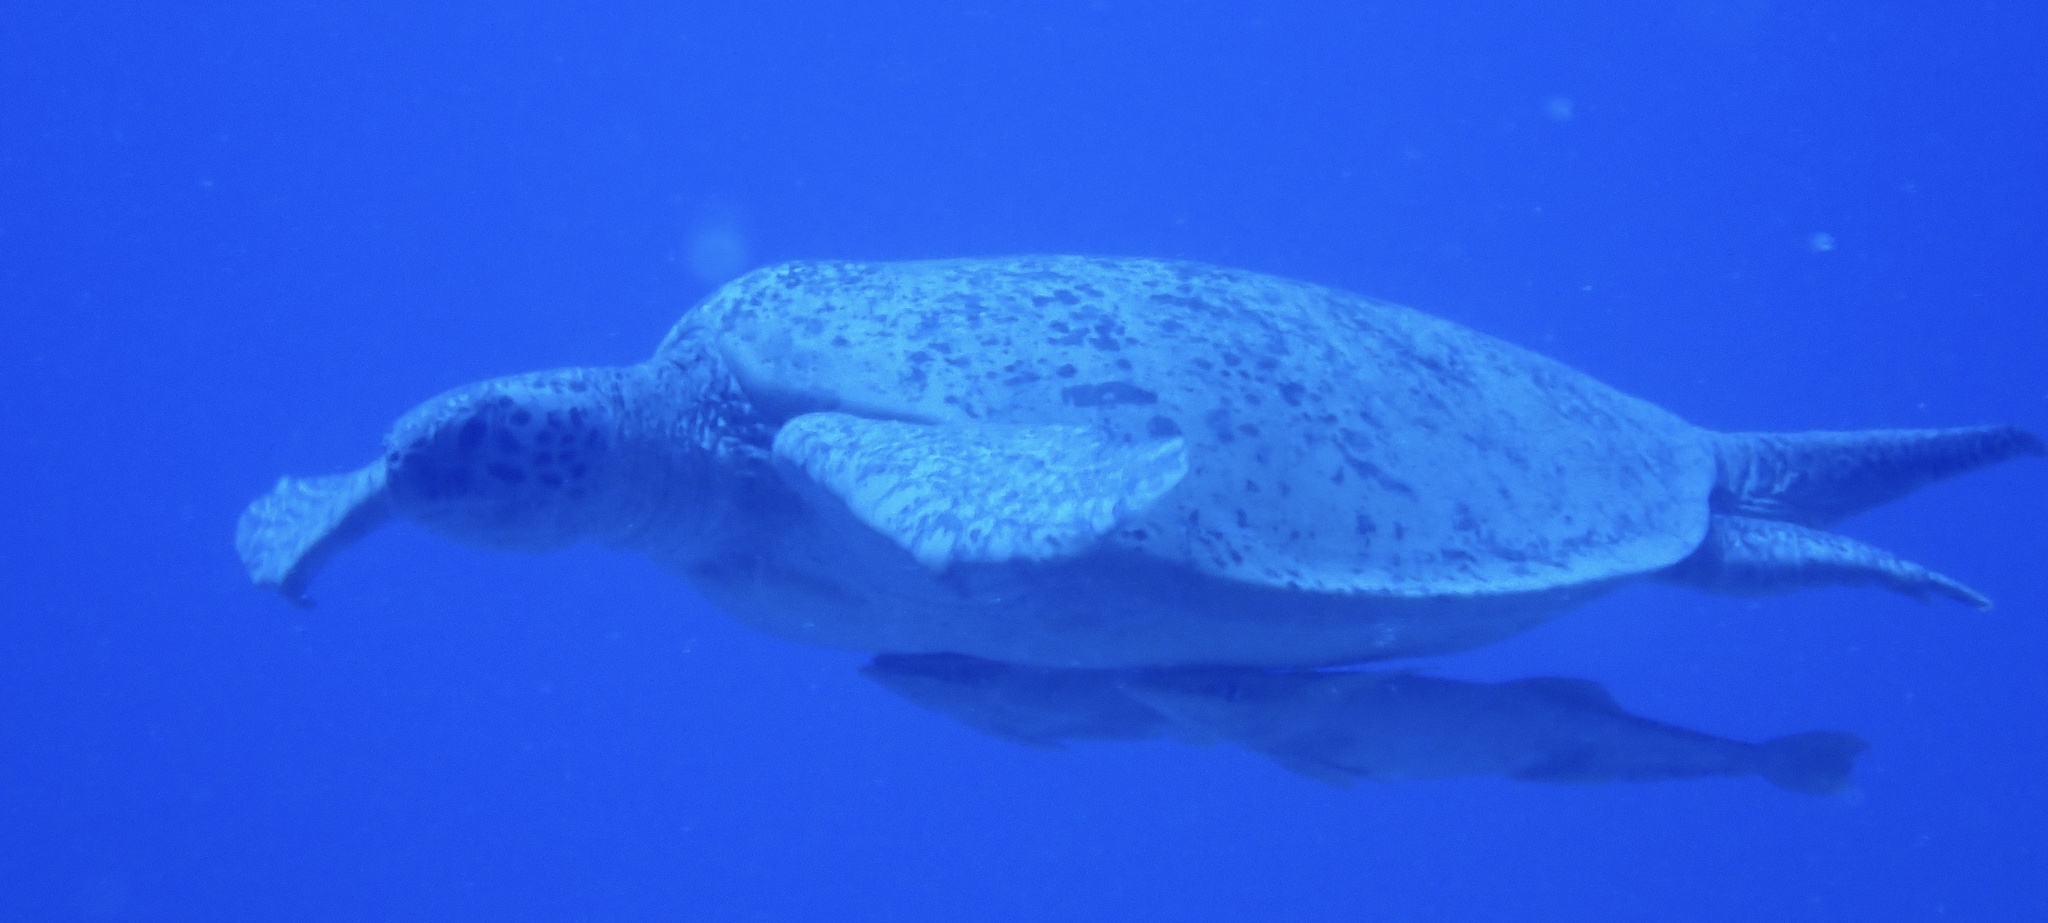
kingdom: Animalia
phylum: Chordata
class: Testudines
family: Cheloniidae
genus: Chelonia
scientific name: Chelonia mydas
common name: Green turtle
